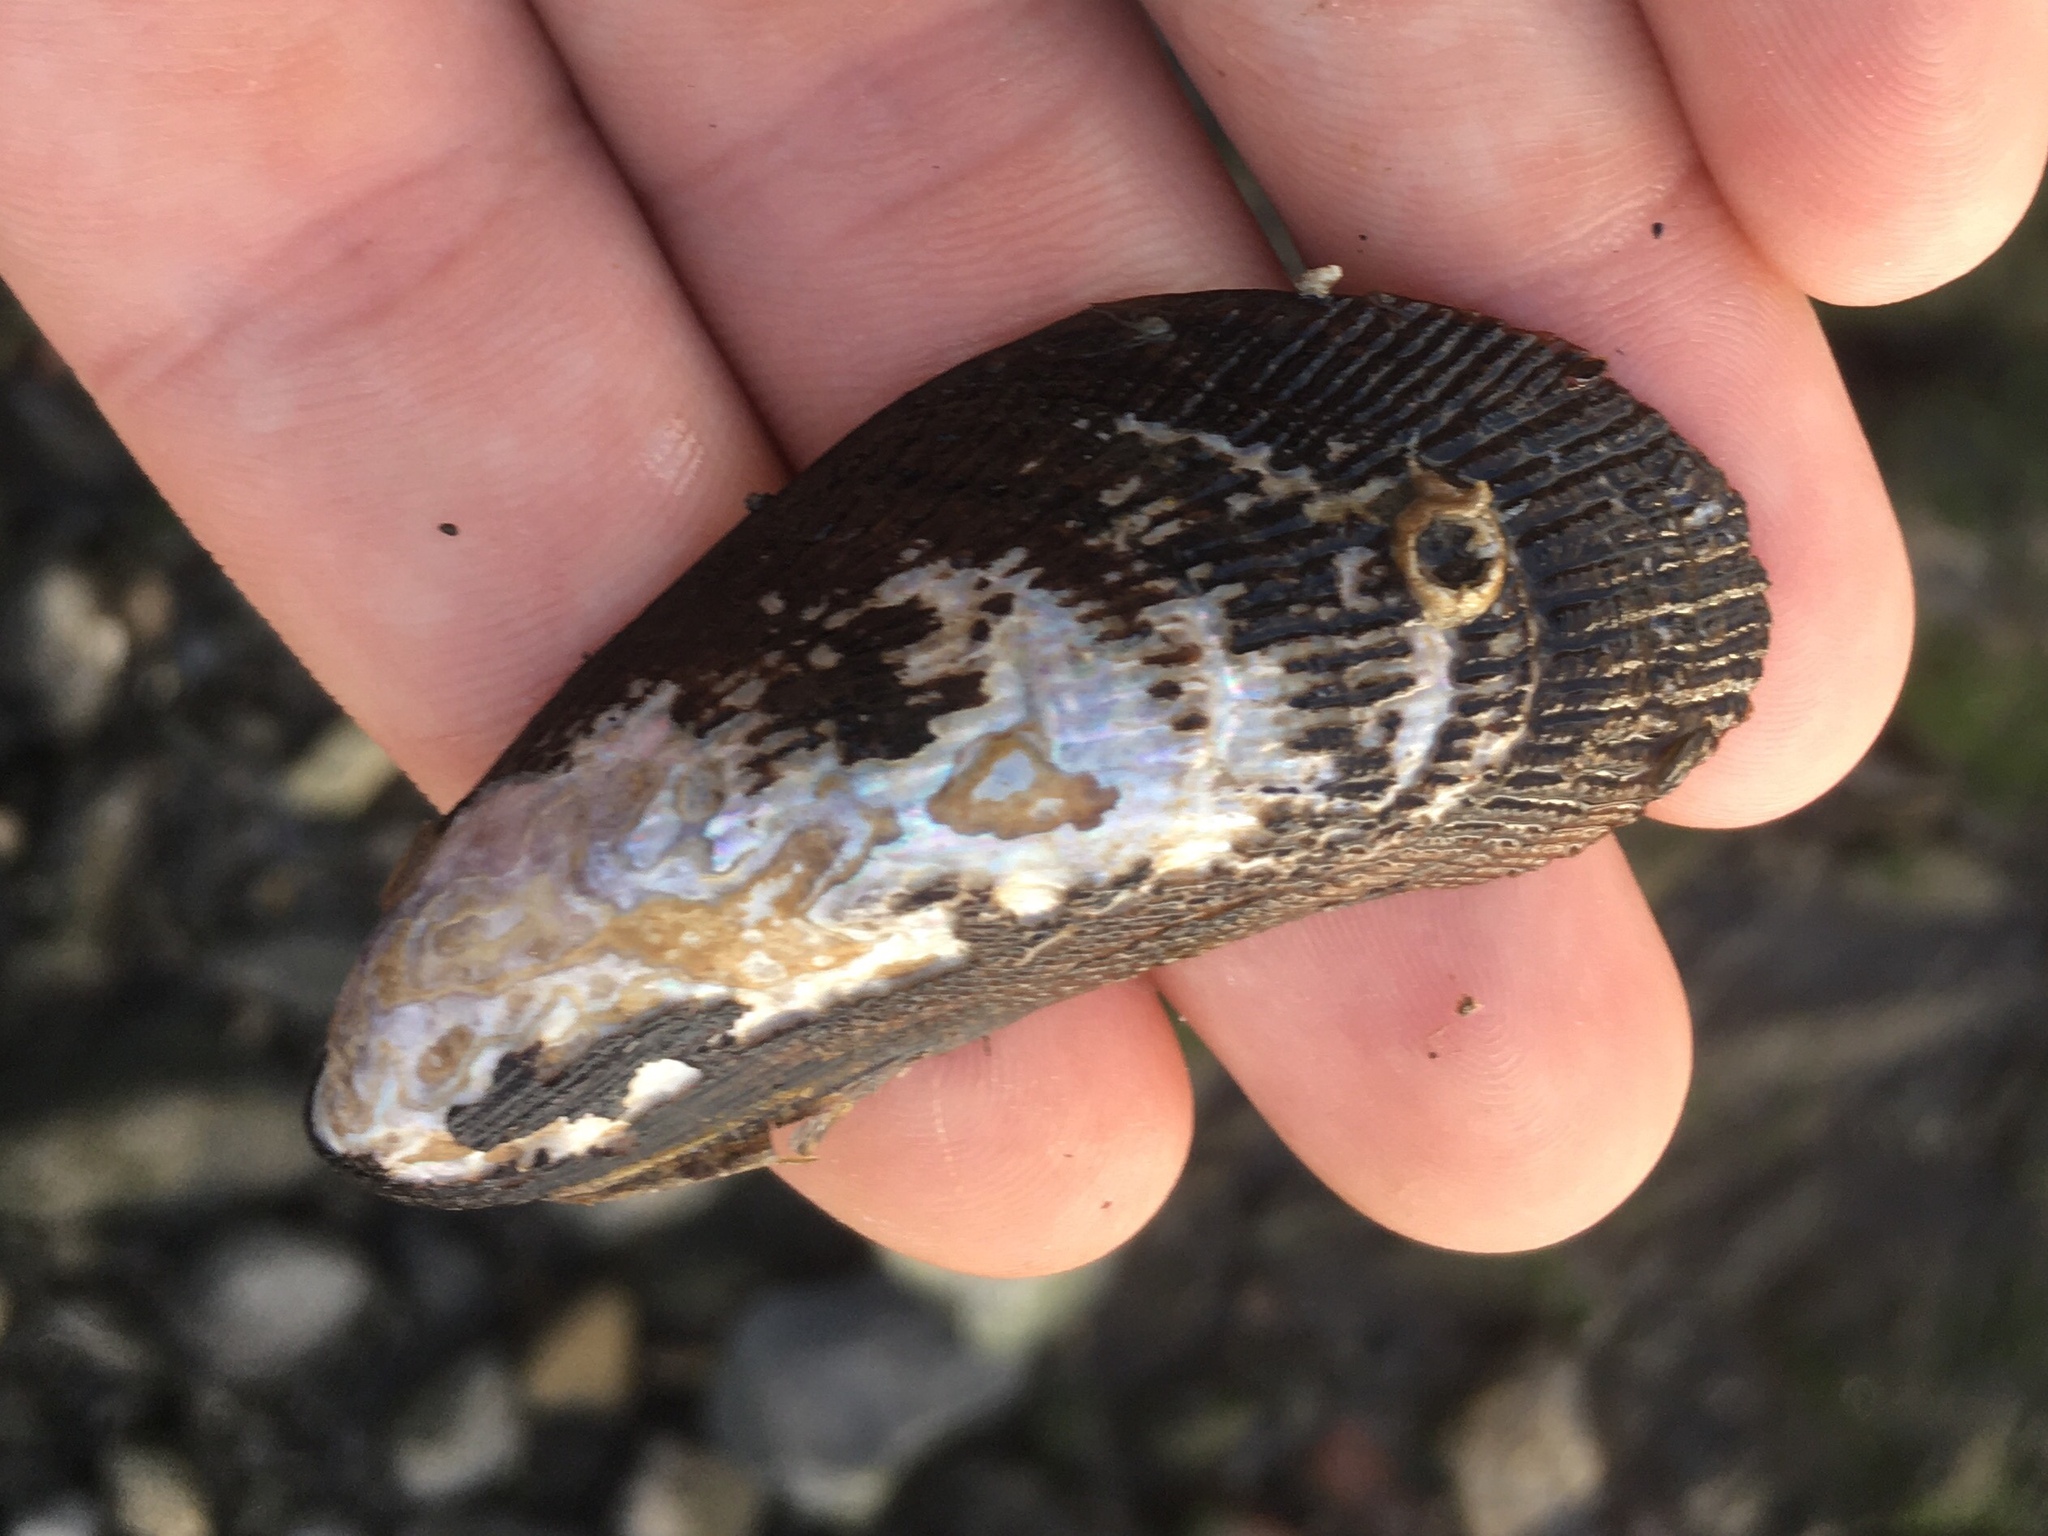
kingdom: Animalia
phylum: Mollusca
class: Bivalvia
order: Mytilida
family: Mytilidae
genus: Geukensia
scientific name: Geukensia demissa
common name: Ribbed mussel
